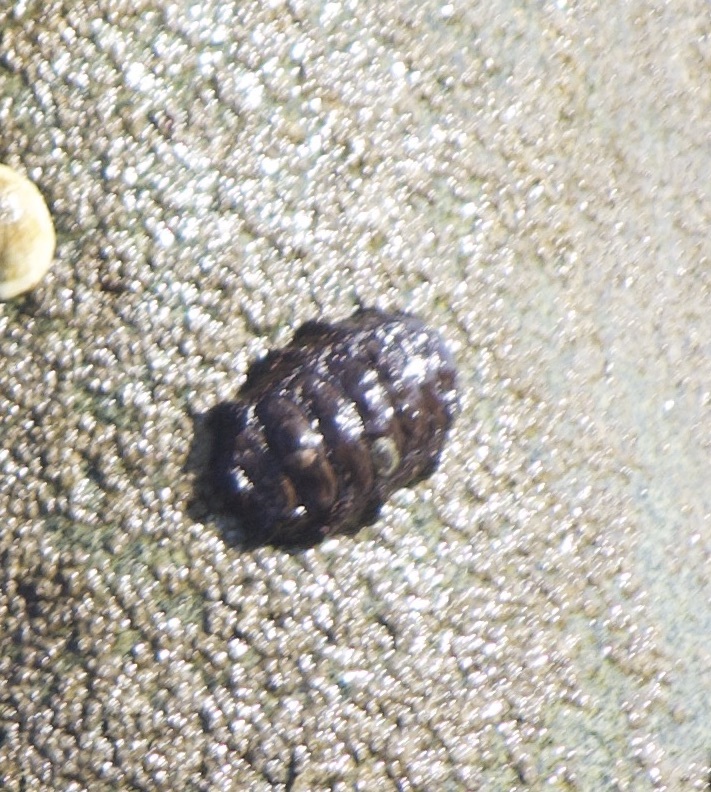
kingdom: Animalia
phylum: Mollusca
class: Polyplacophora
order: Chitonida
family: Chitonidae
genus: Enoplochiton
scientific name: Enoplochiton niger
